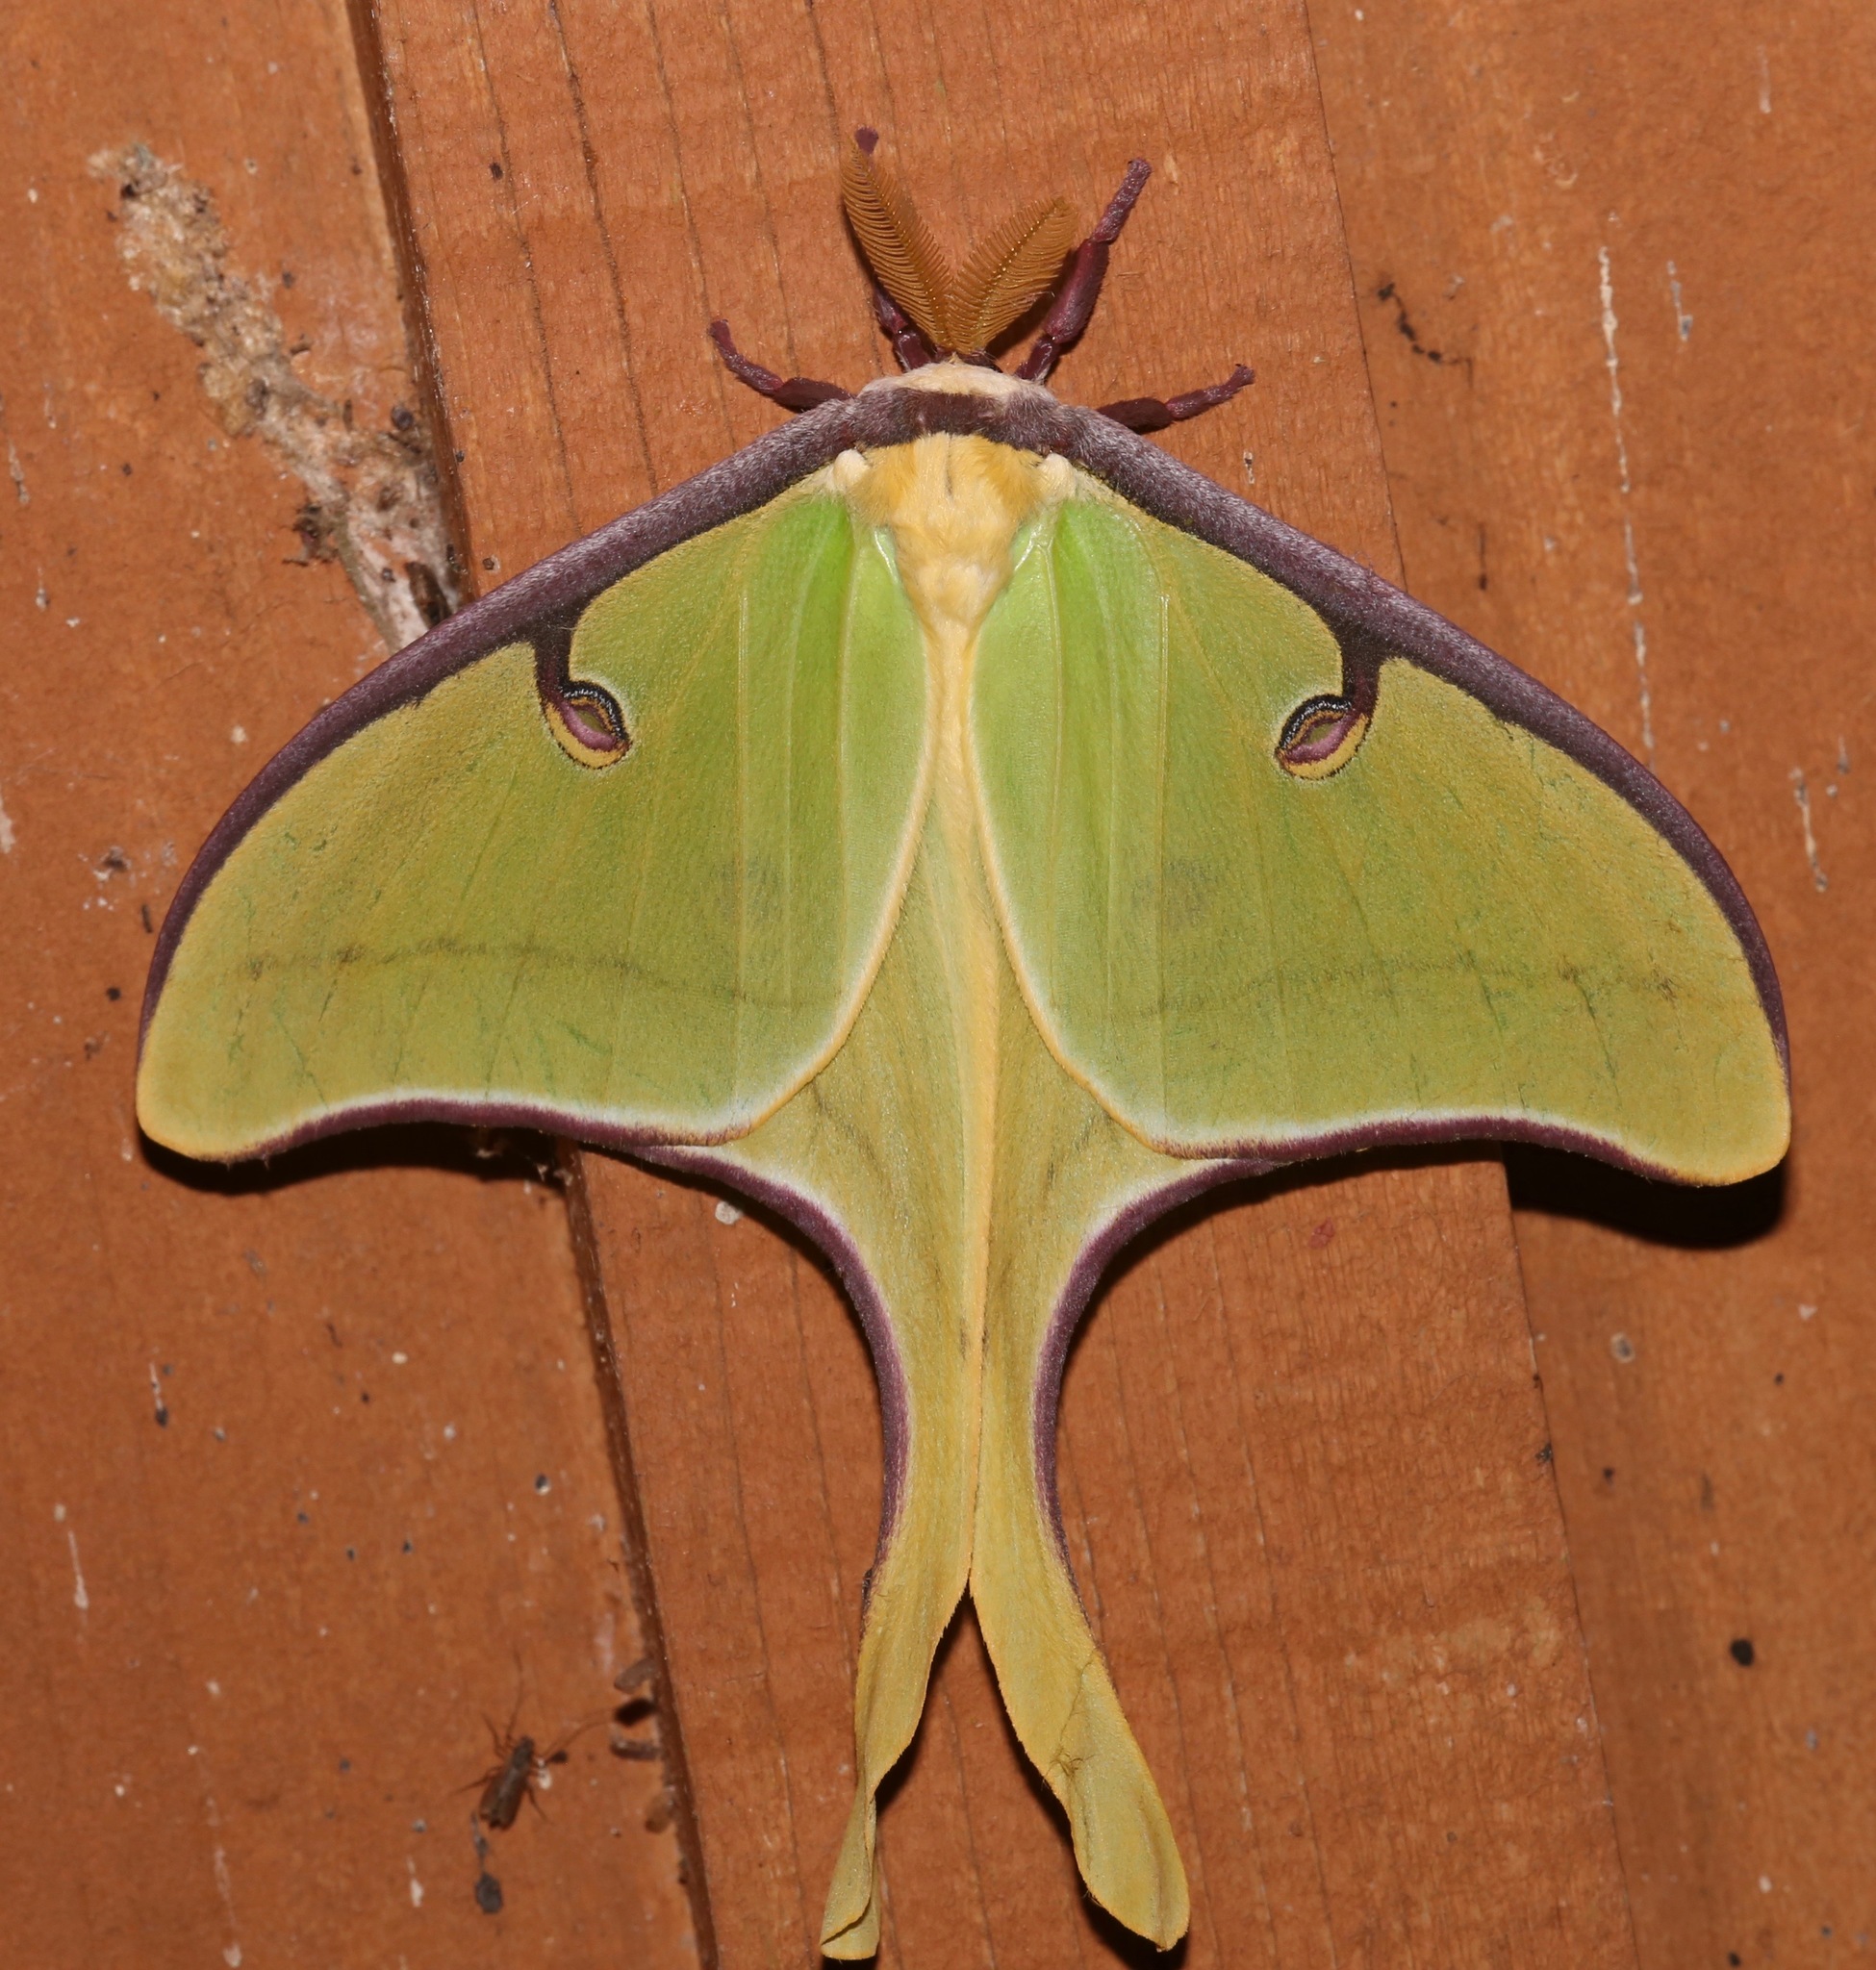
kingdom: Animalia
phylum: Arthropoda
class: Insecta
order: Lepidoptera
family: Saturniidae
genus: Actias
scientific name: Actias luna
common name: Luna moth
